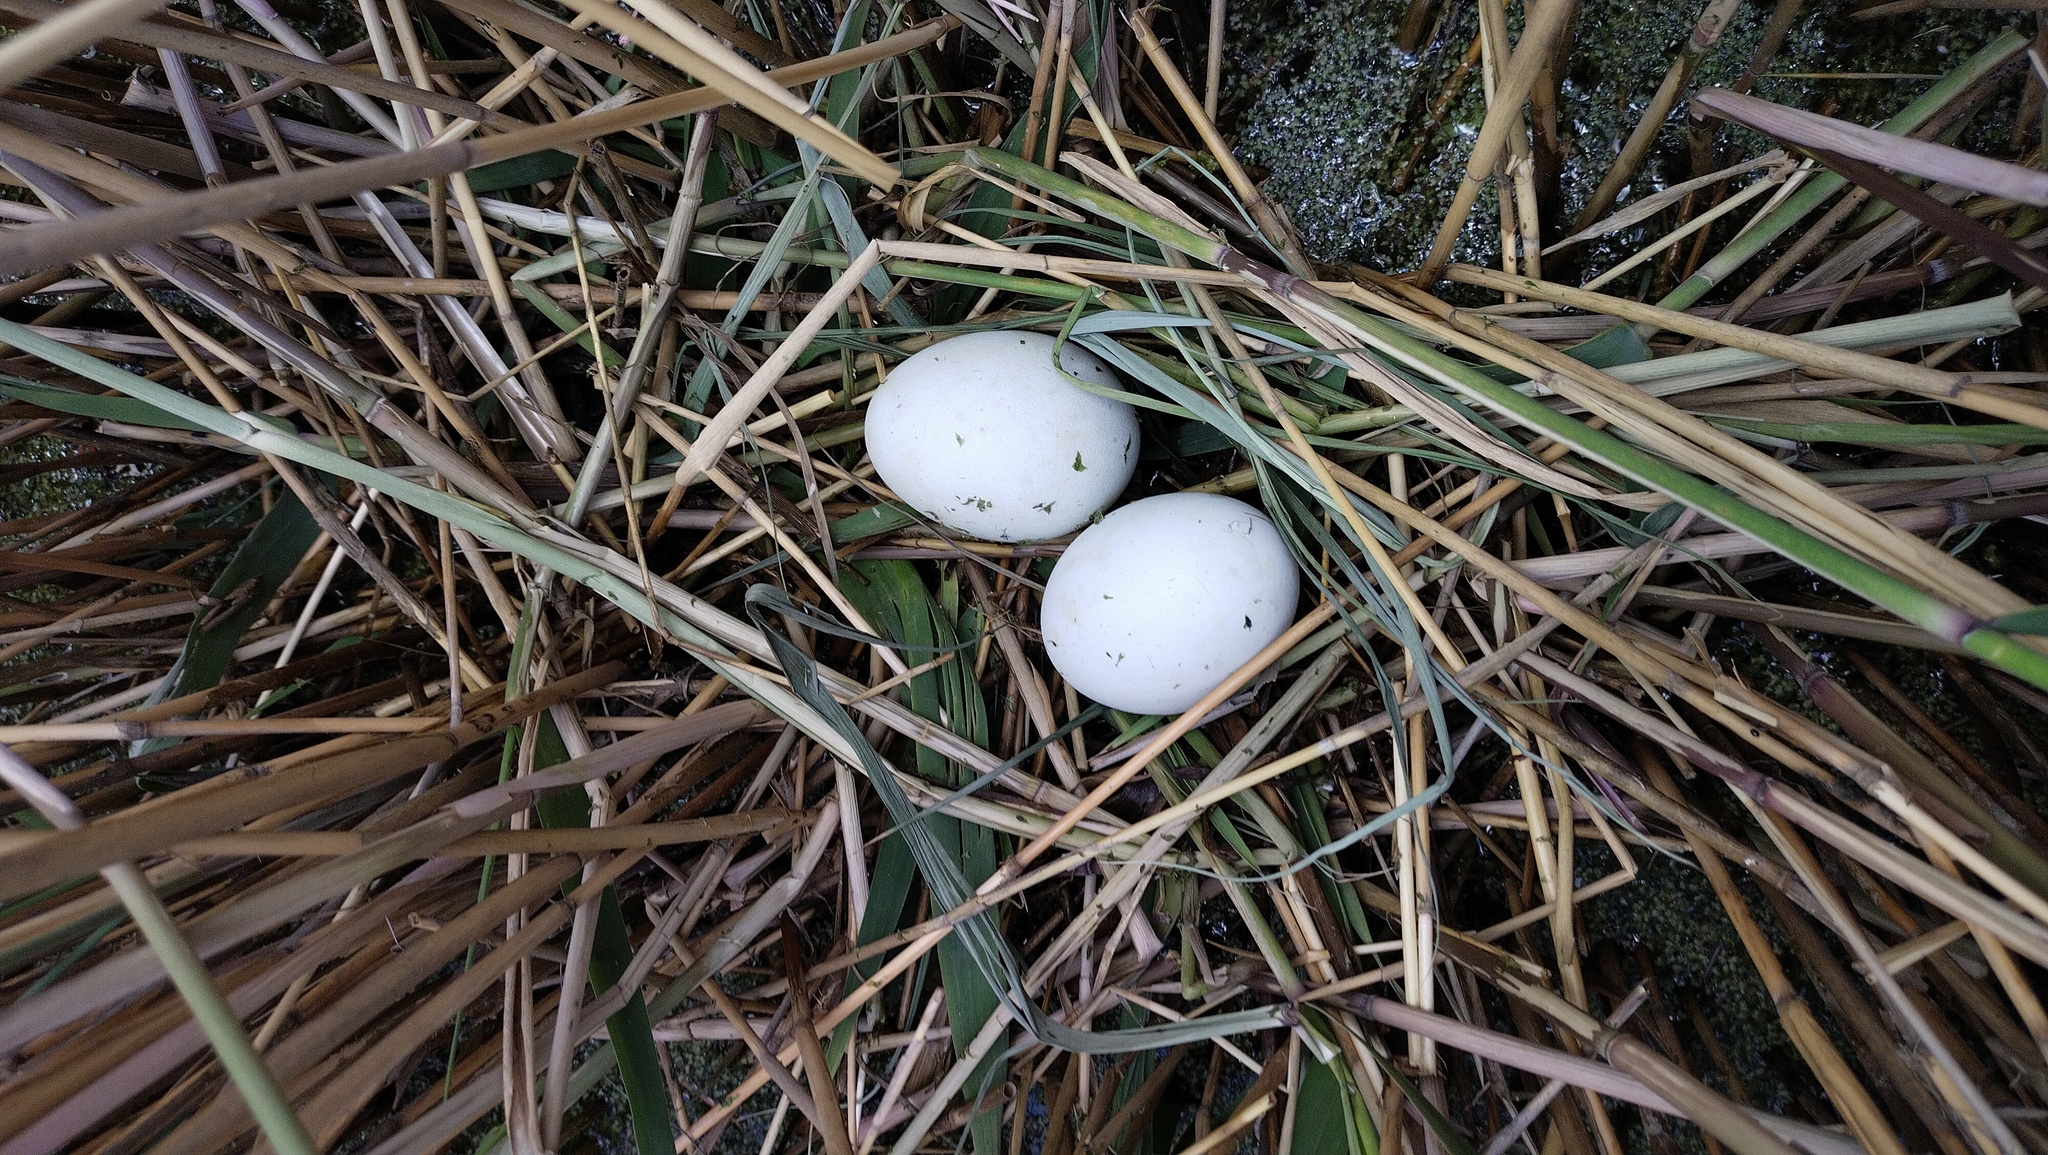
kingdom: Animalia
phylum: Chordata
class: Aves
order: Anseriformes
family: Anatidae
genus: Oxyura
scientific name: Oxyura leucocephala
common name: White-headed duck
